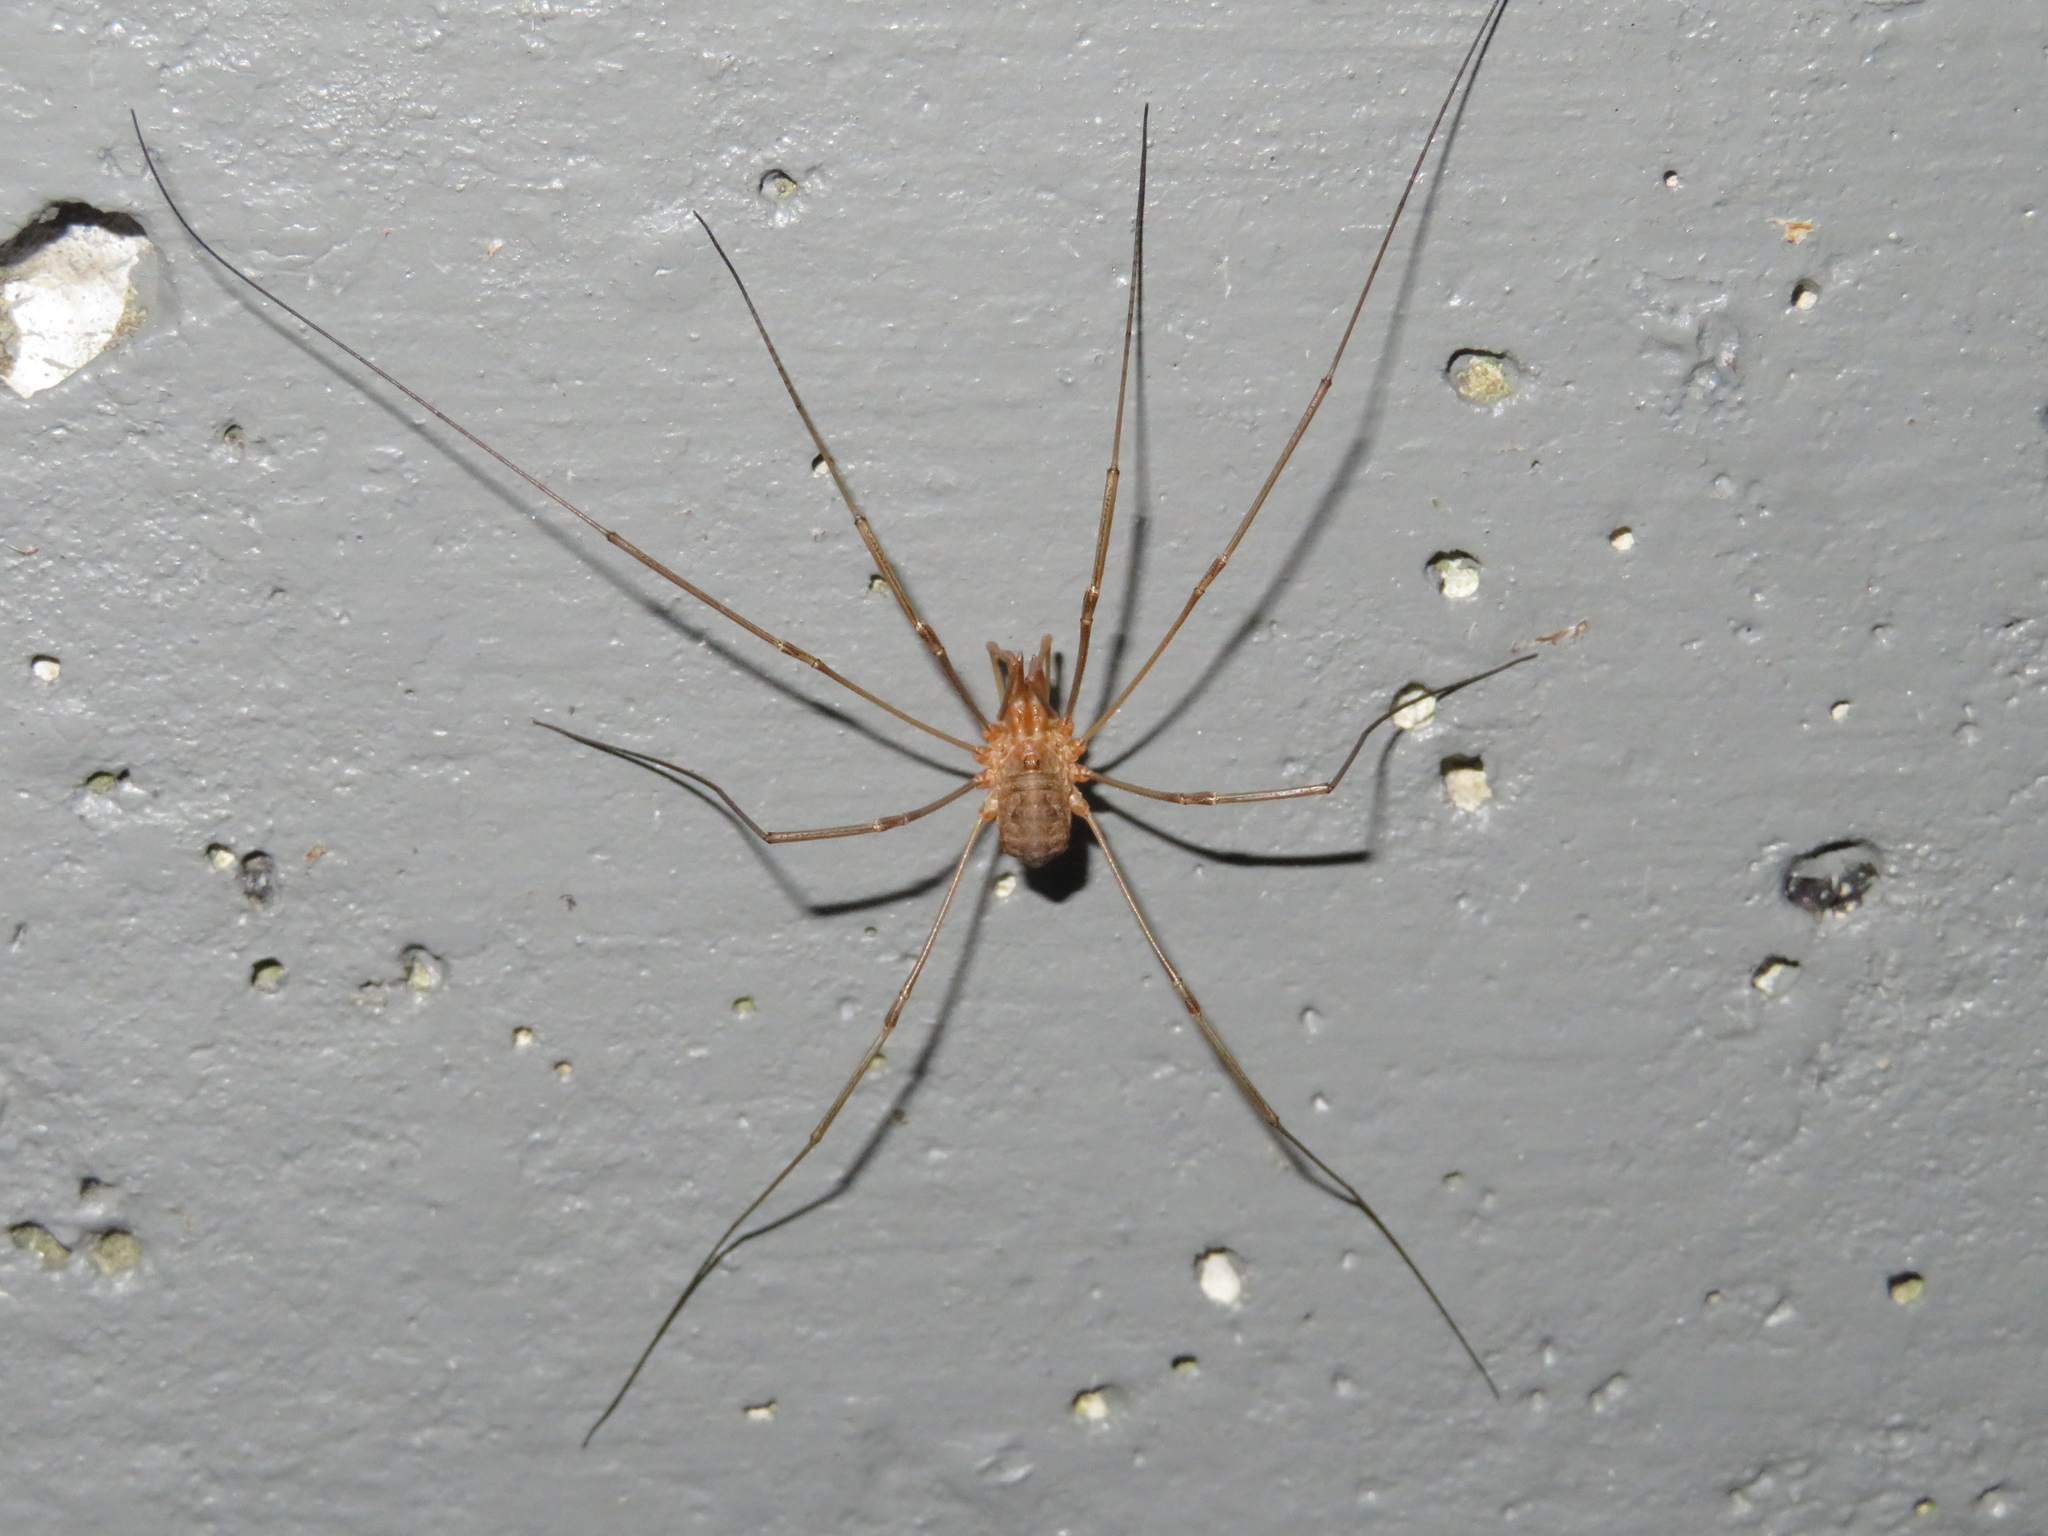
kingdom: Animalia
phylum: Arthropoda
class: Arachnida
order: Opiliones
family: Phalangiidae
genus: Phalangium
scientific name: Phalangium opilio
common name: Daddy longleg
